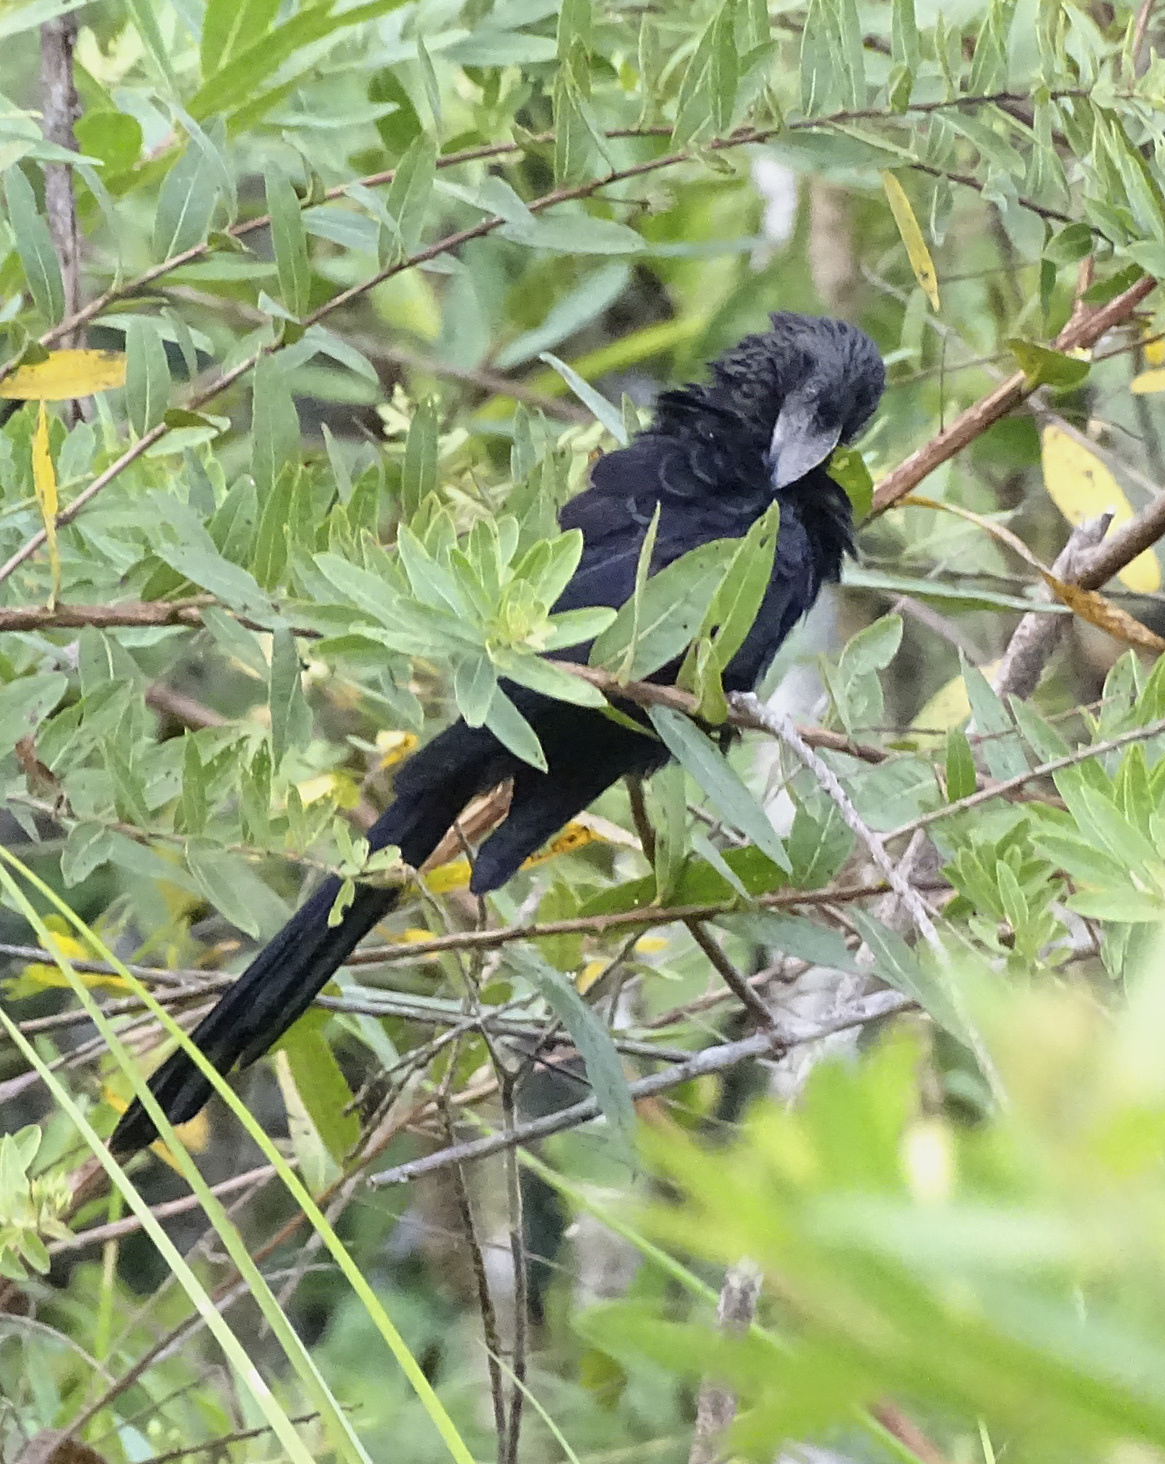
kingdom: Animalia
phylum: Chordata
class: Aves
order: Cuculiformes
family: Cuculidae
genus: Crotophaga
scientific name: Crotophaga ani
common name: Smooth-billed ani
